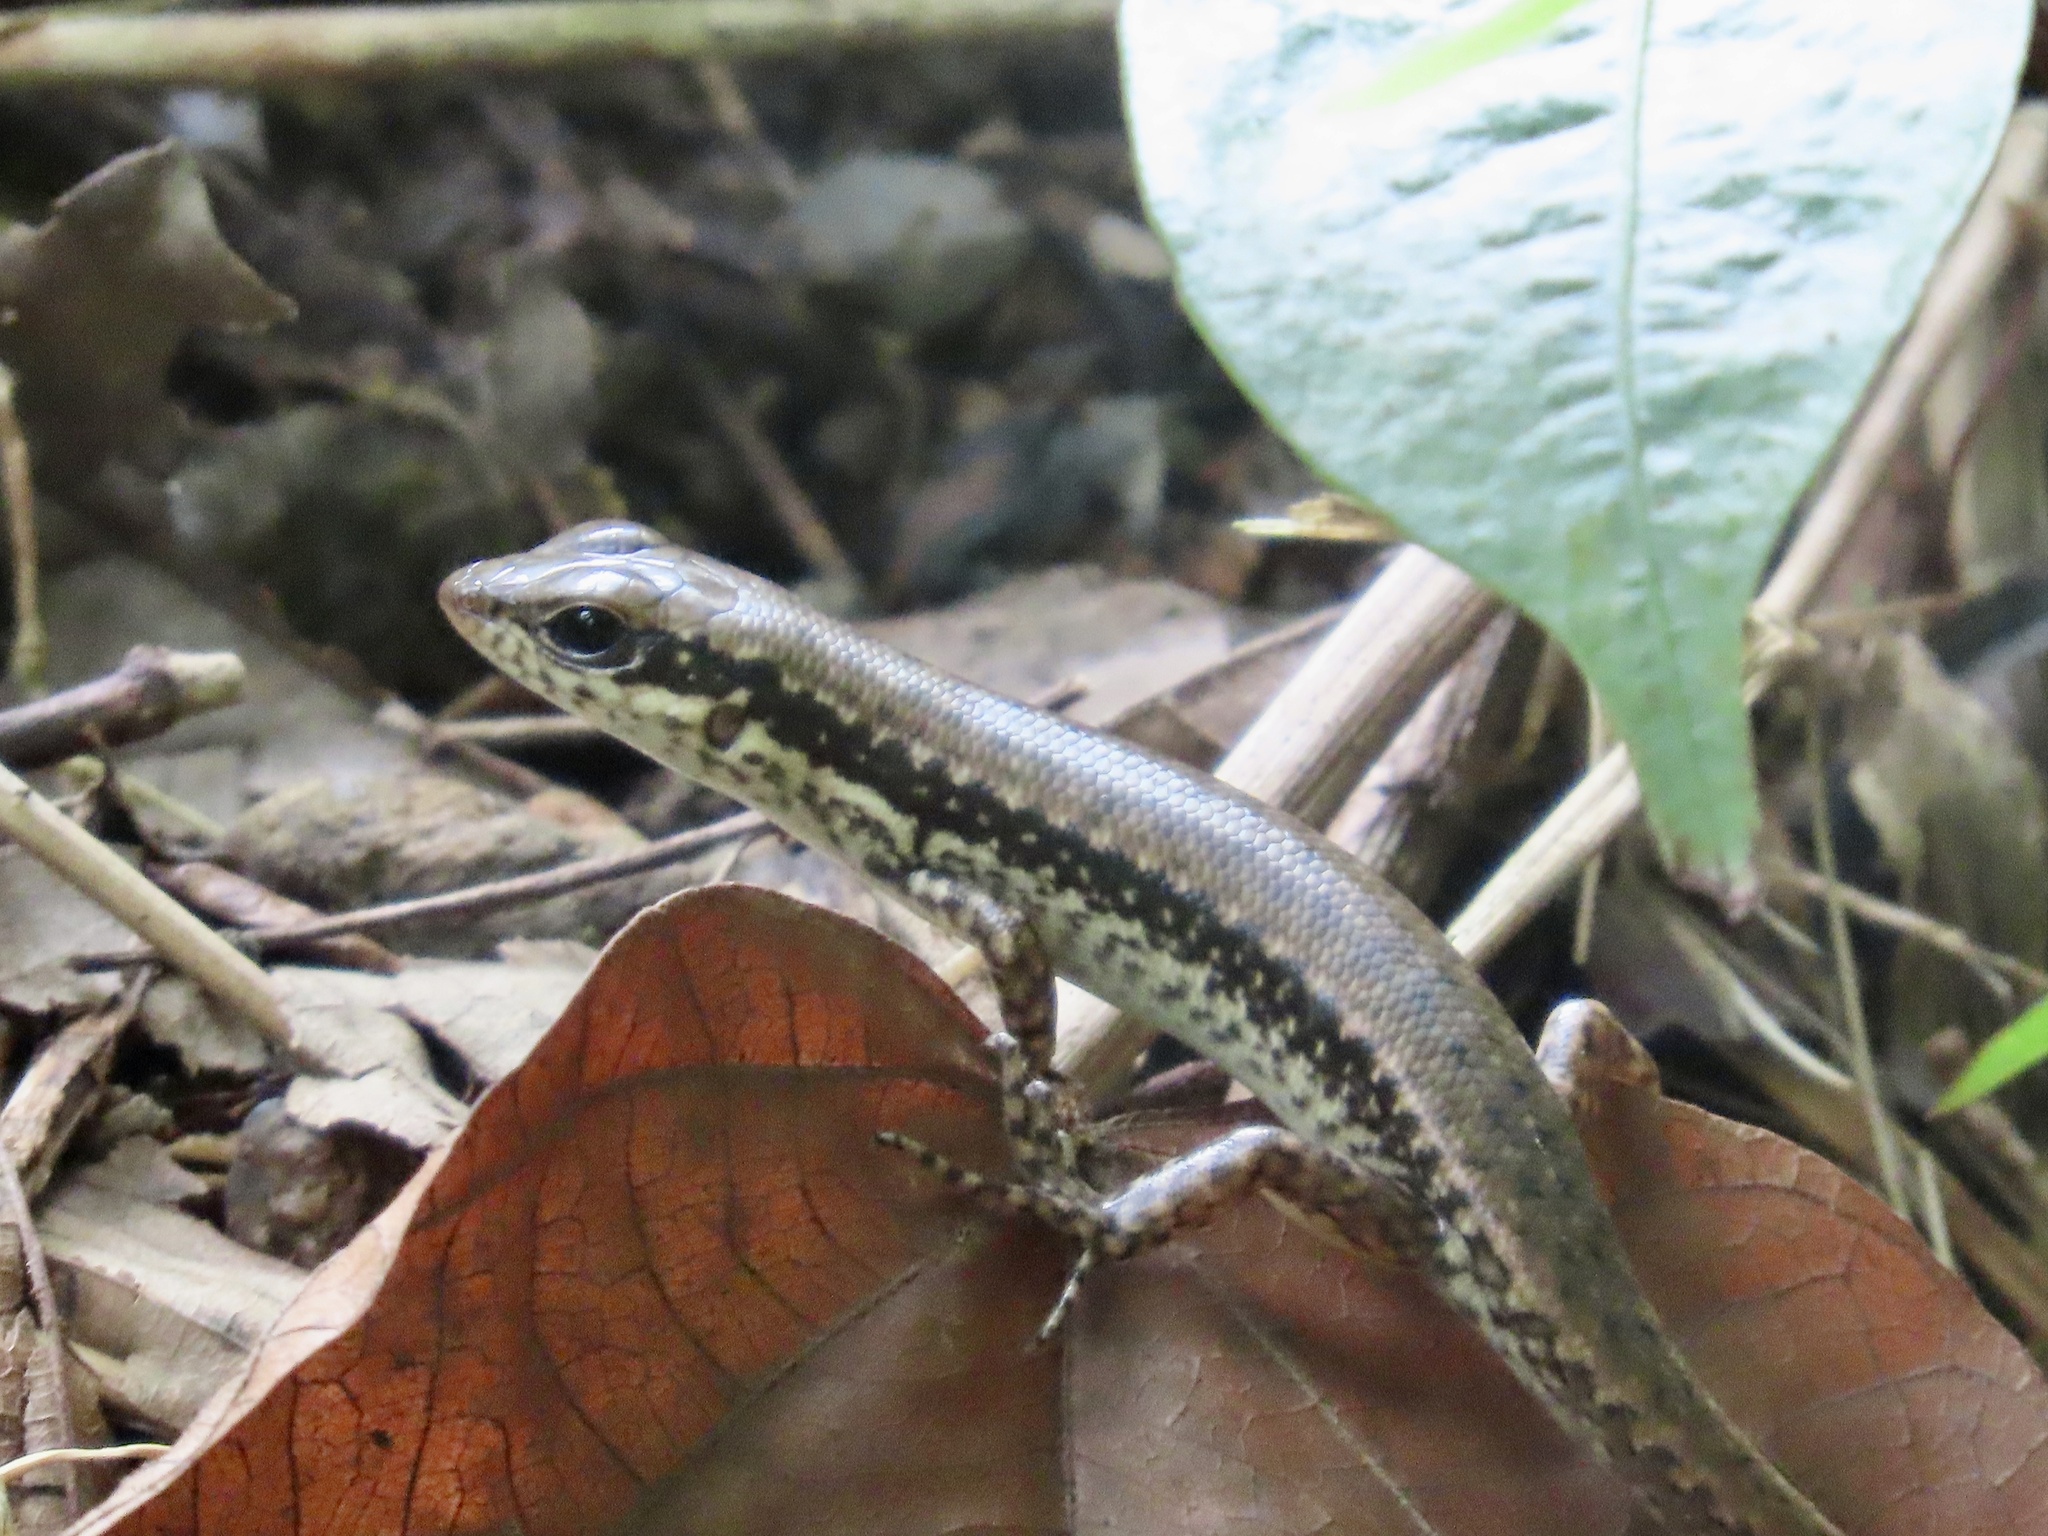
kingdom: Animalia
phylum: Chordata
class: Squamata
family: Scincidae
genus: Sphenomorphus
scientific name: Sphenomorphus incognitus
